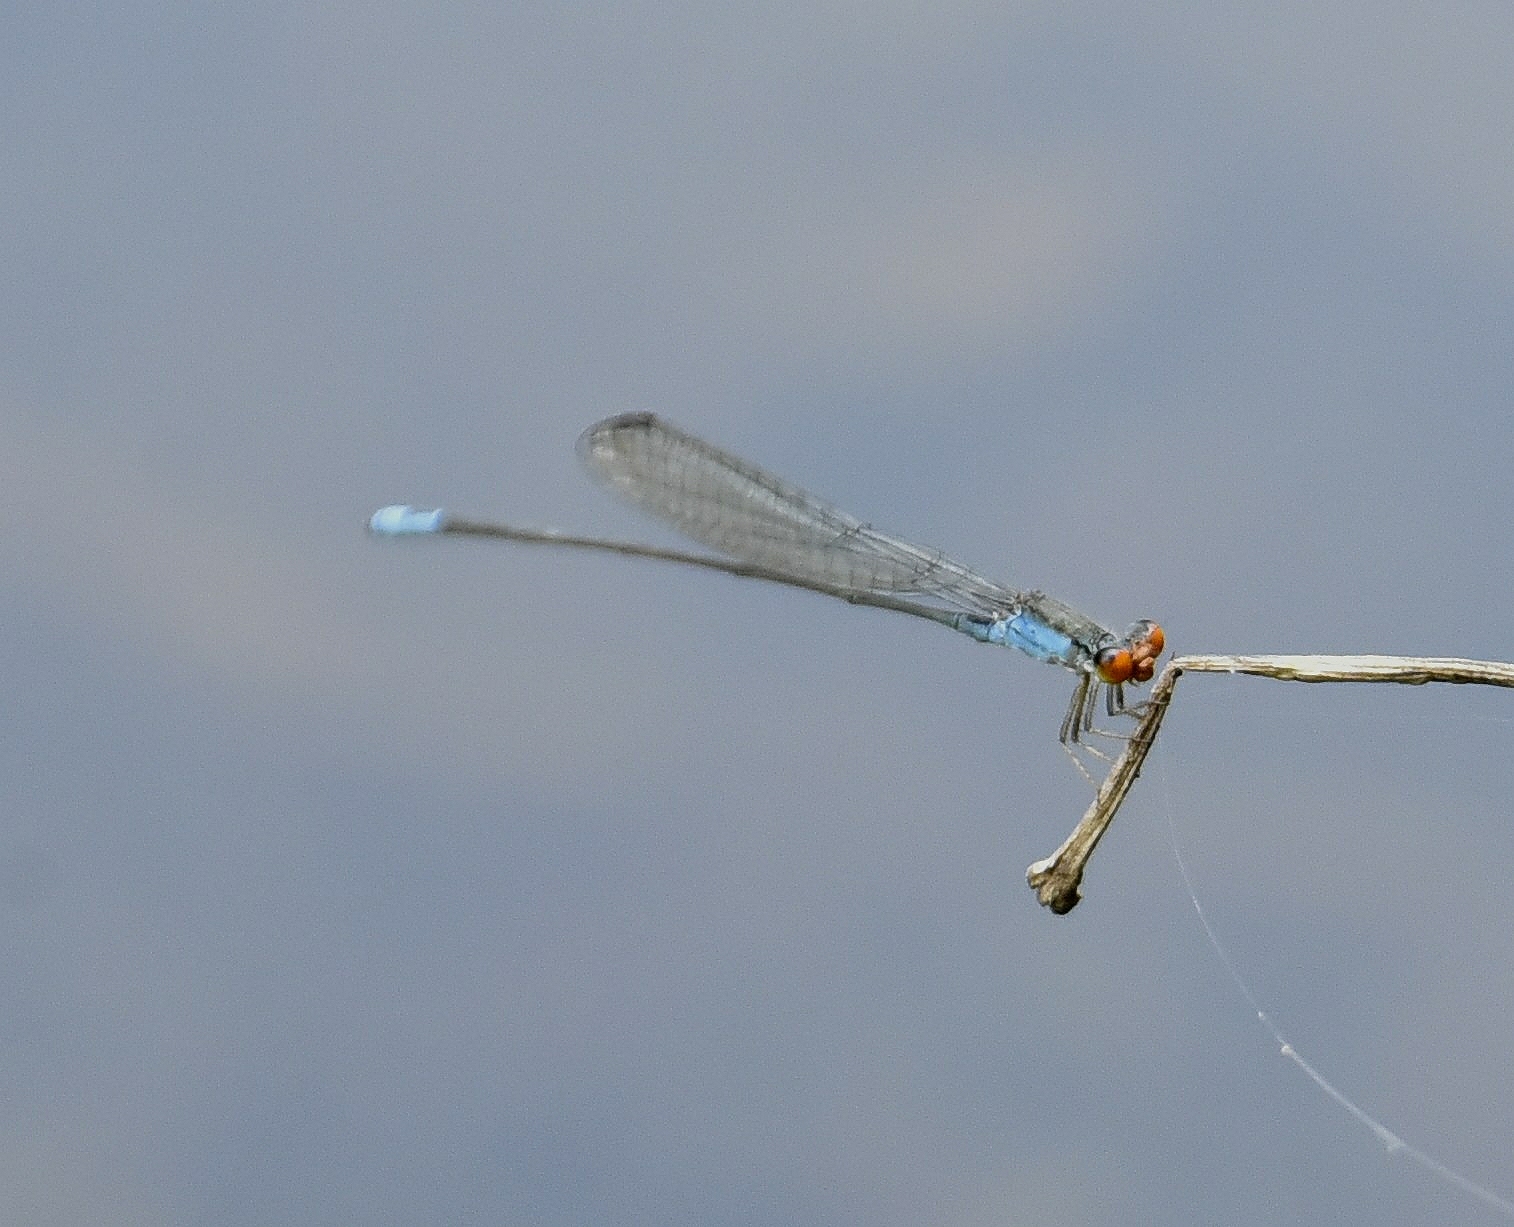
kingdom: Animalia
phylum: Arthropoda
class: Insecta
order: Odonata
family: Coenagrionidae
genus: Pseudagrion
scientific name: Pseudagrion rubriceps
